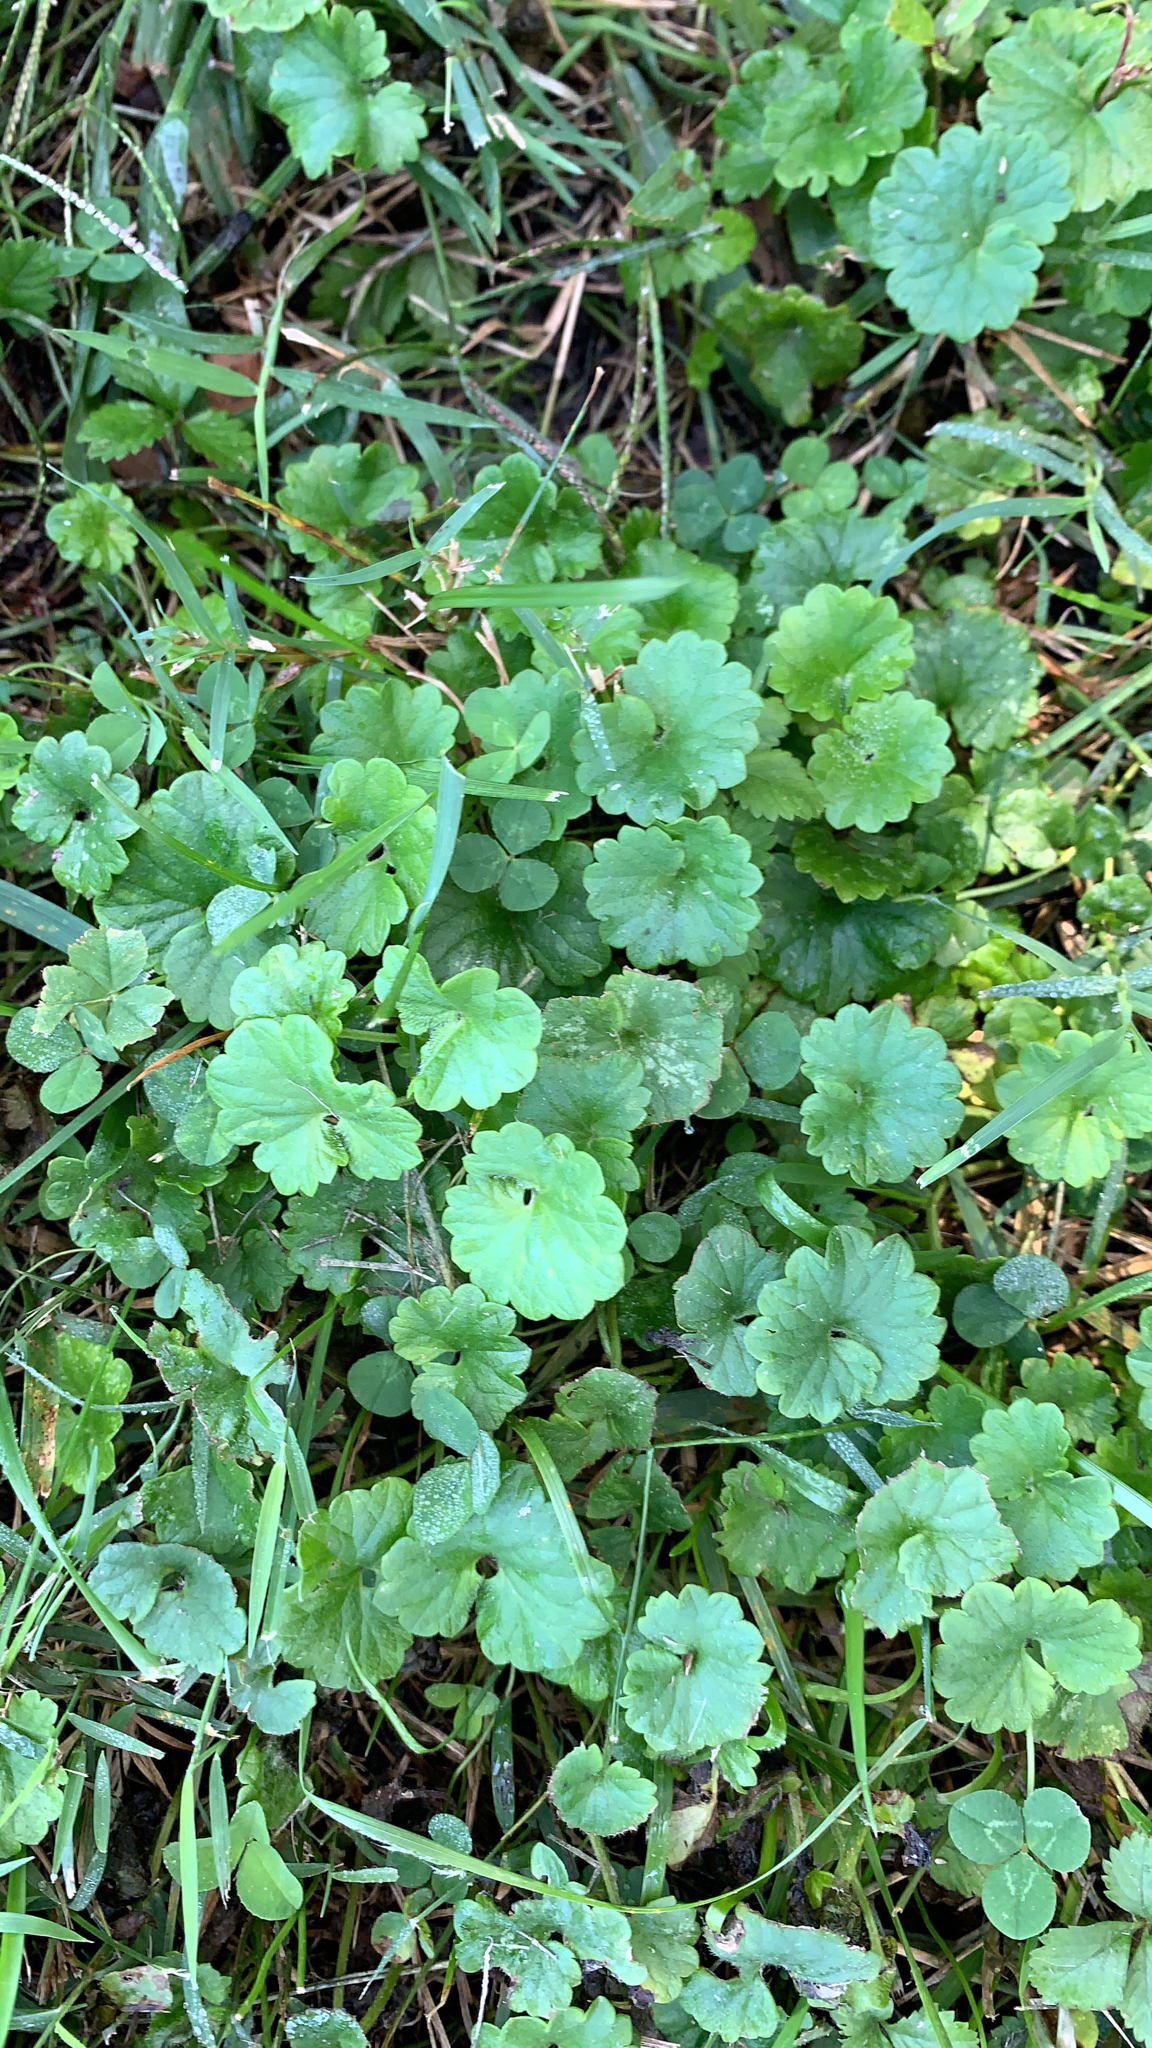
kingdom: Plantae
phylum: Tracheophyta
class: Magnoliopsida
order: Lamiales
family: Lamiaceae
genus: Glechoma
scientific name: Glechoma hederacea
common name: Ground ivy
